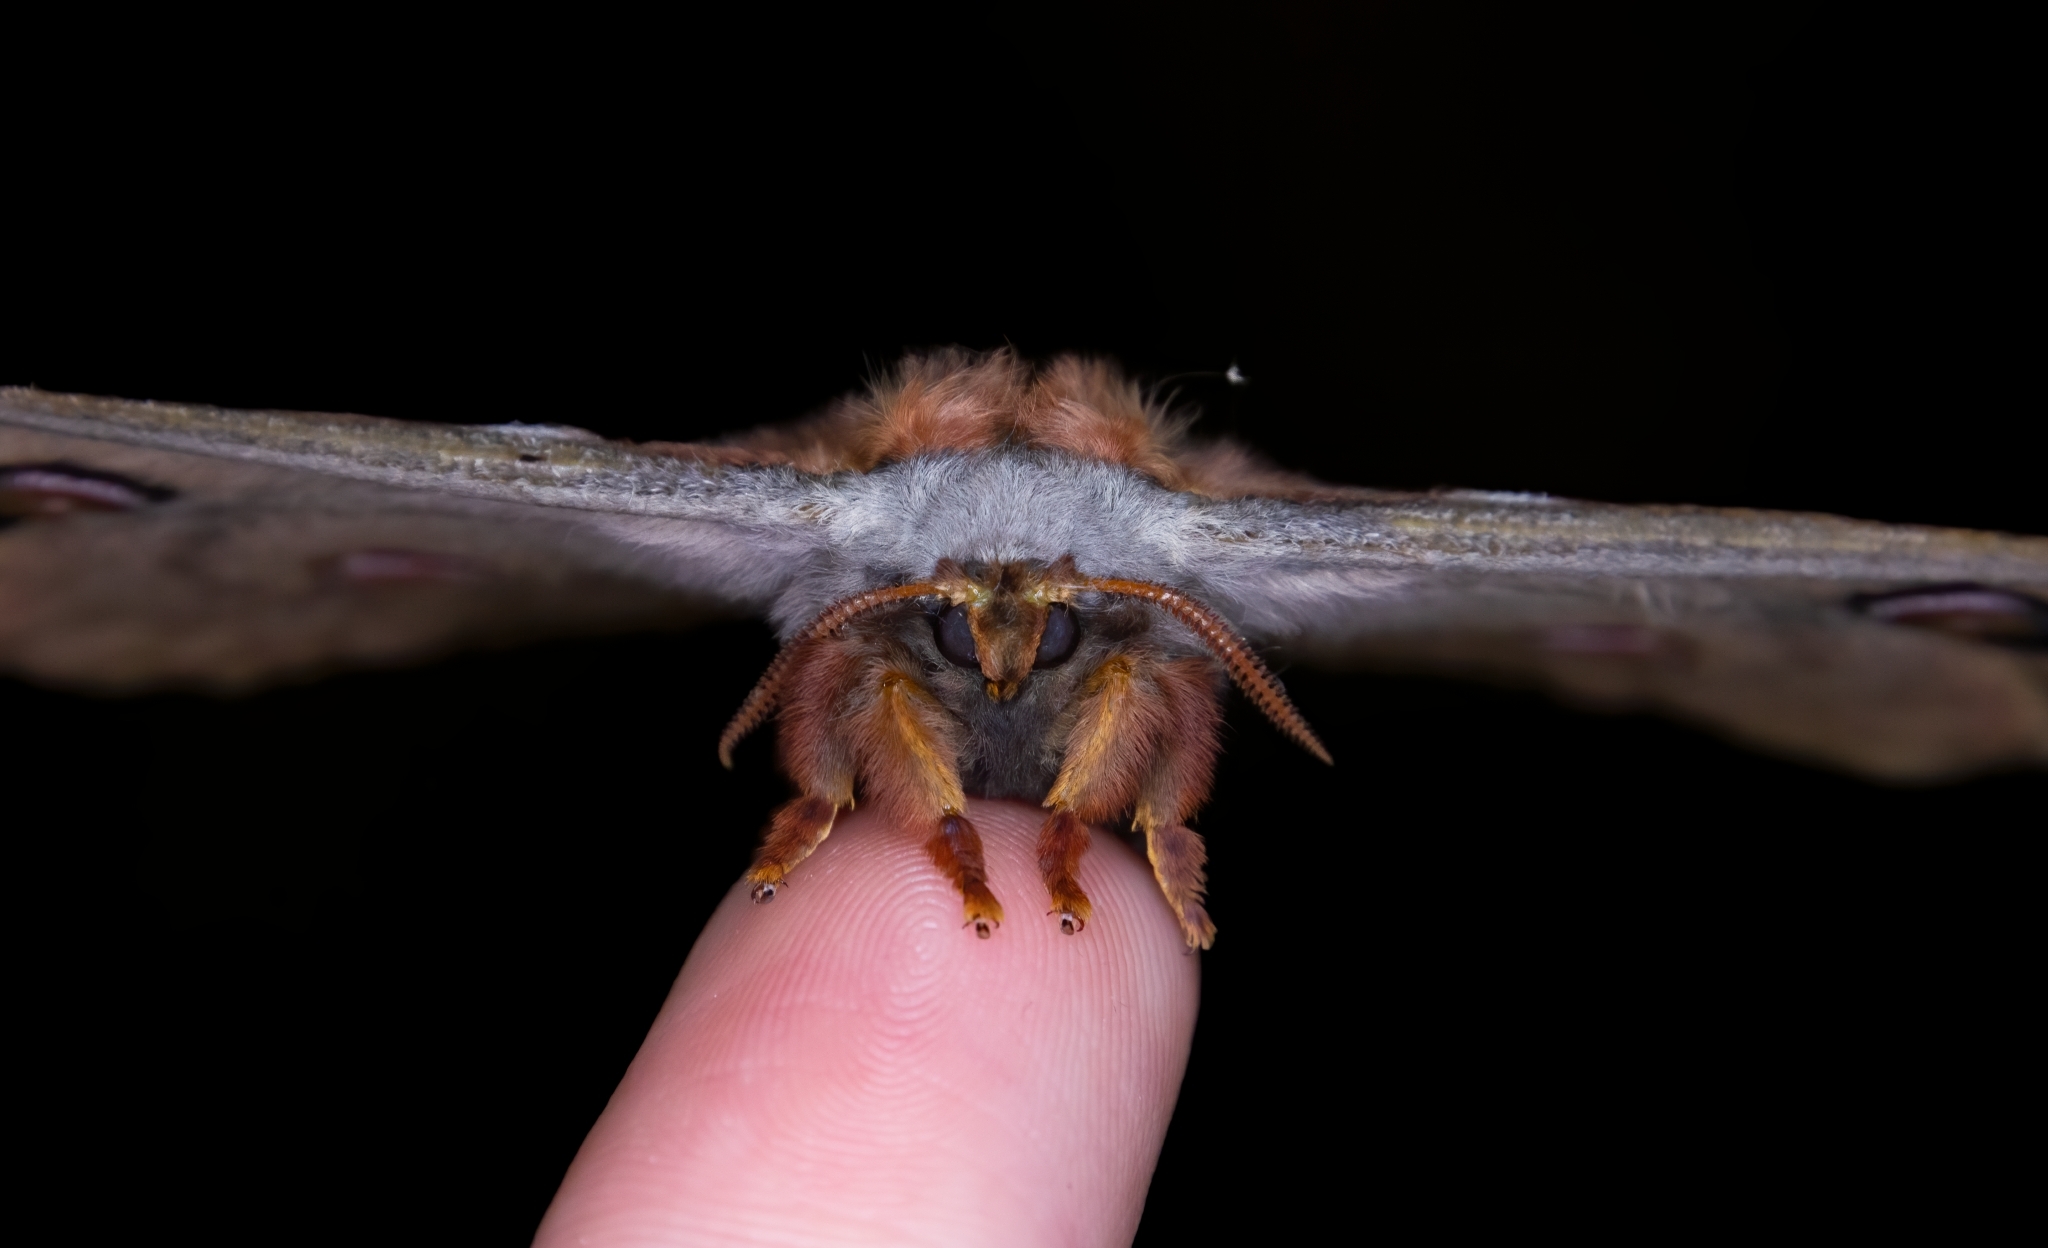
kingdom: Animalia
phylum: Arthropoda
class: Insecta
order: Lepidoptera
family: Saturniidae
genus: Opodiphthera
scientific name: Opodiphthera
